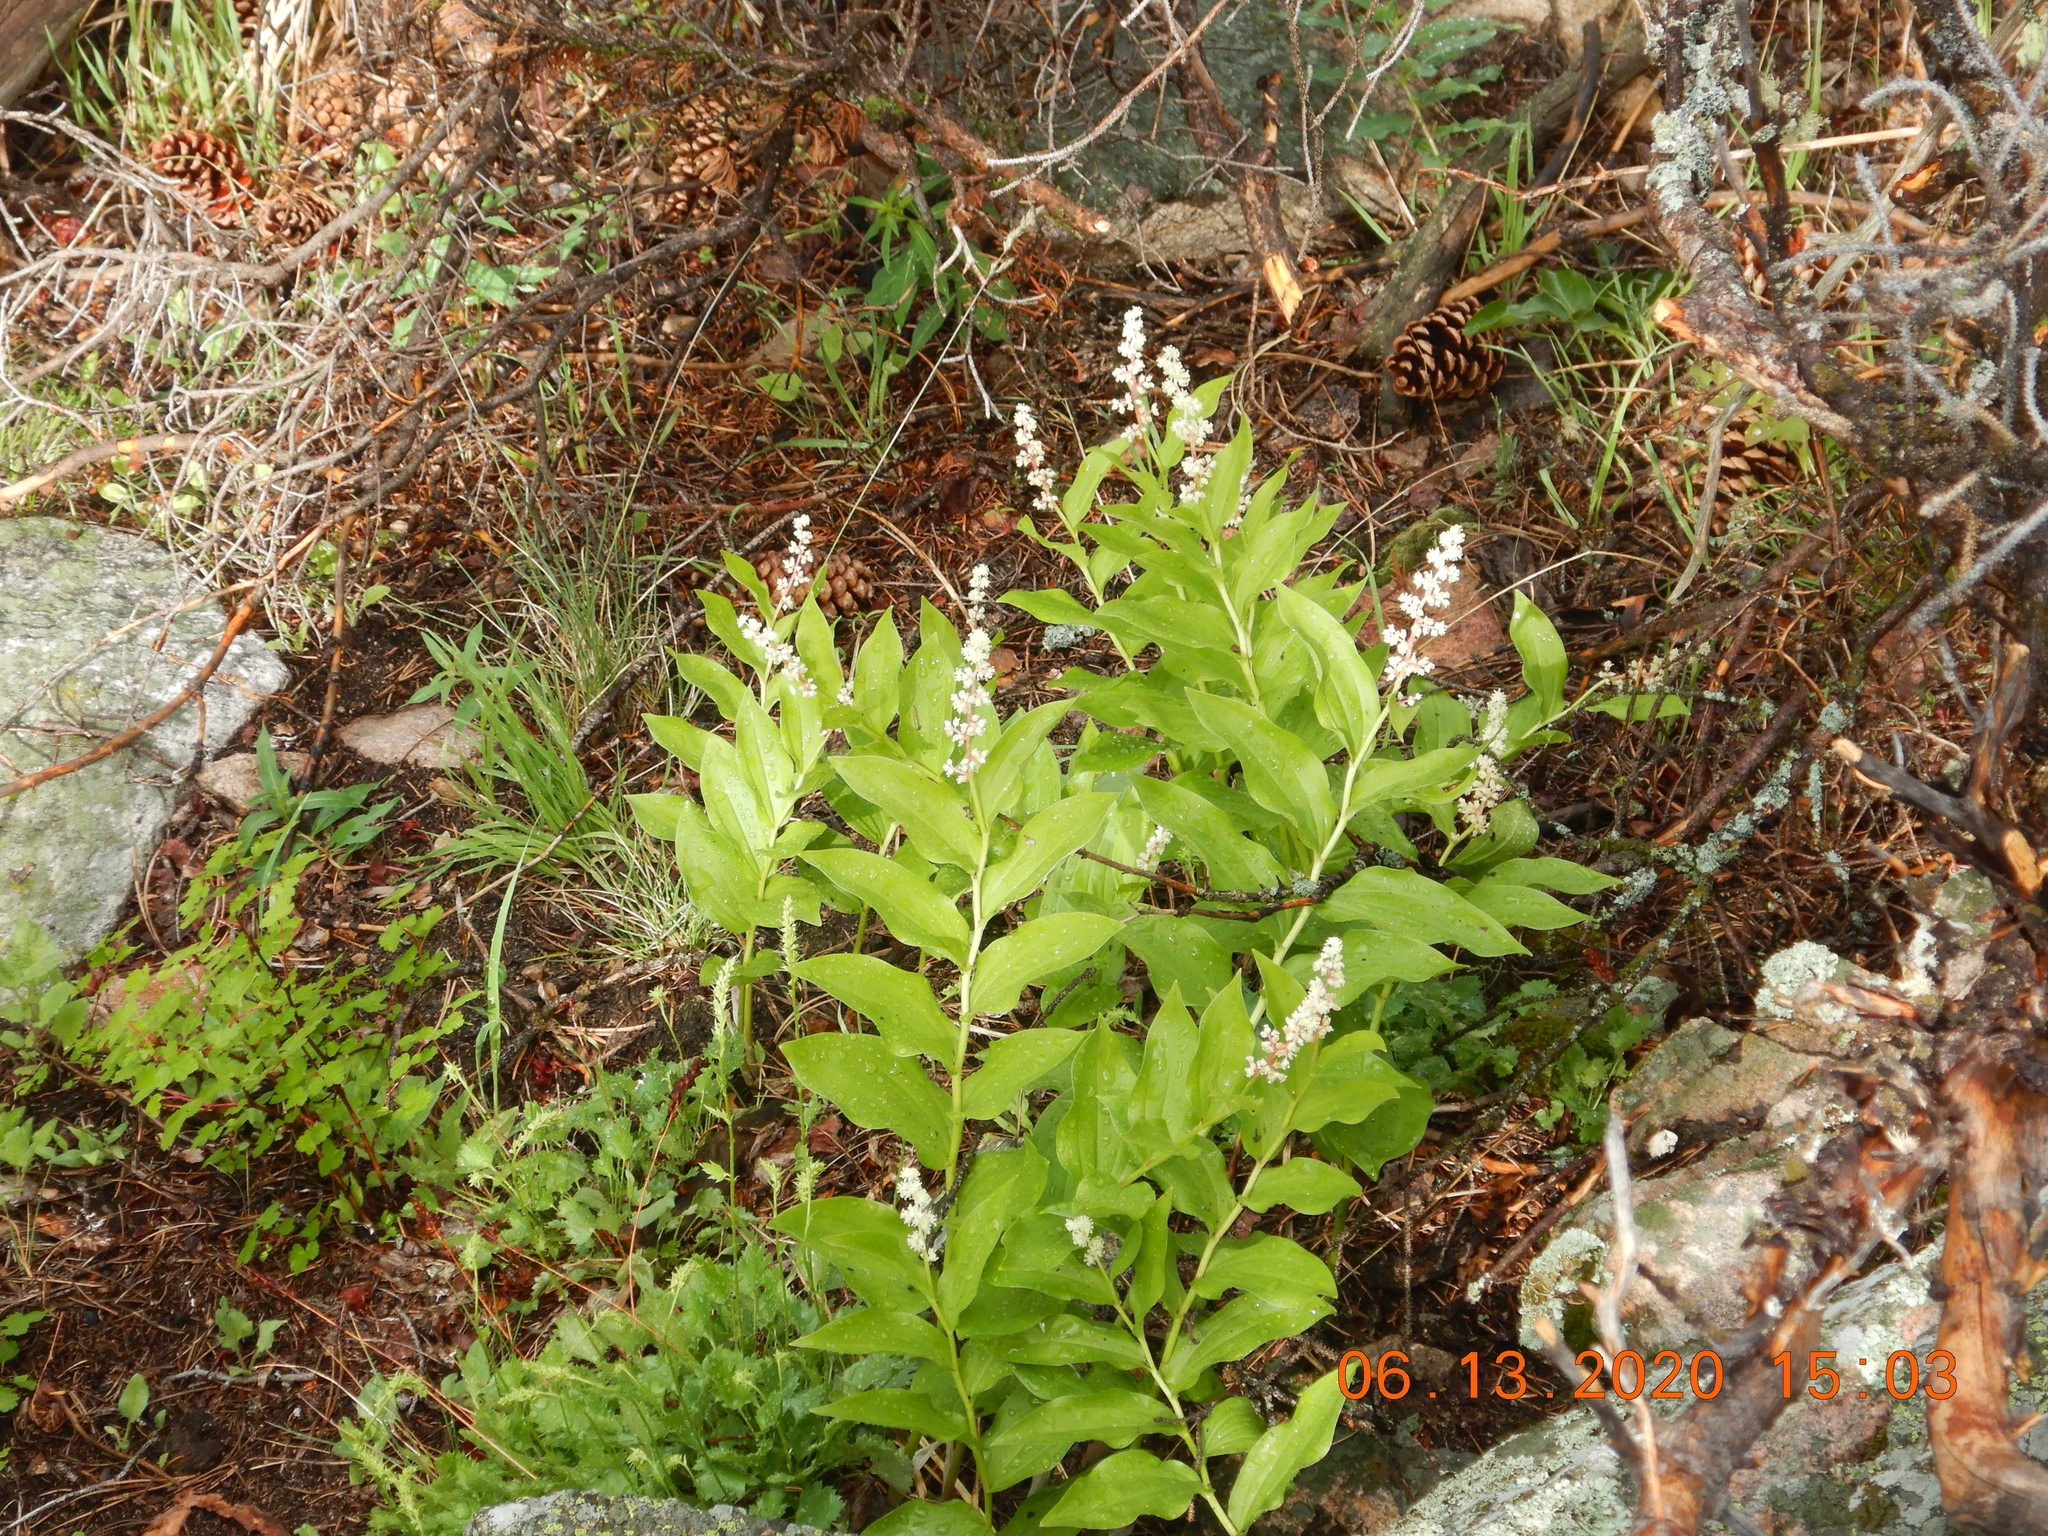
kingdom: Plantae
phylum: Tracheophyta
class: Liliopsida
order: Asparagales
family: Asparagaceae
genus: Maianthemum
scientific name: Maianthemum racemosum
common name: False spikenard
